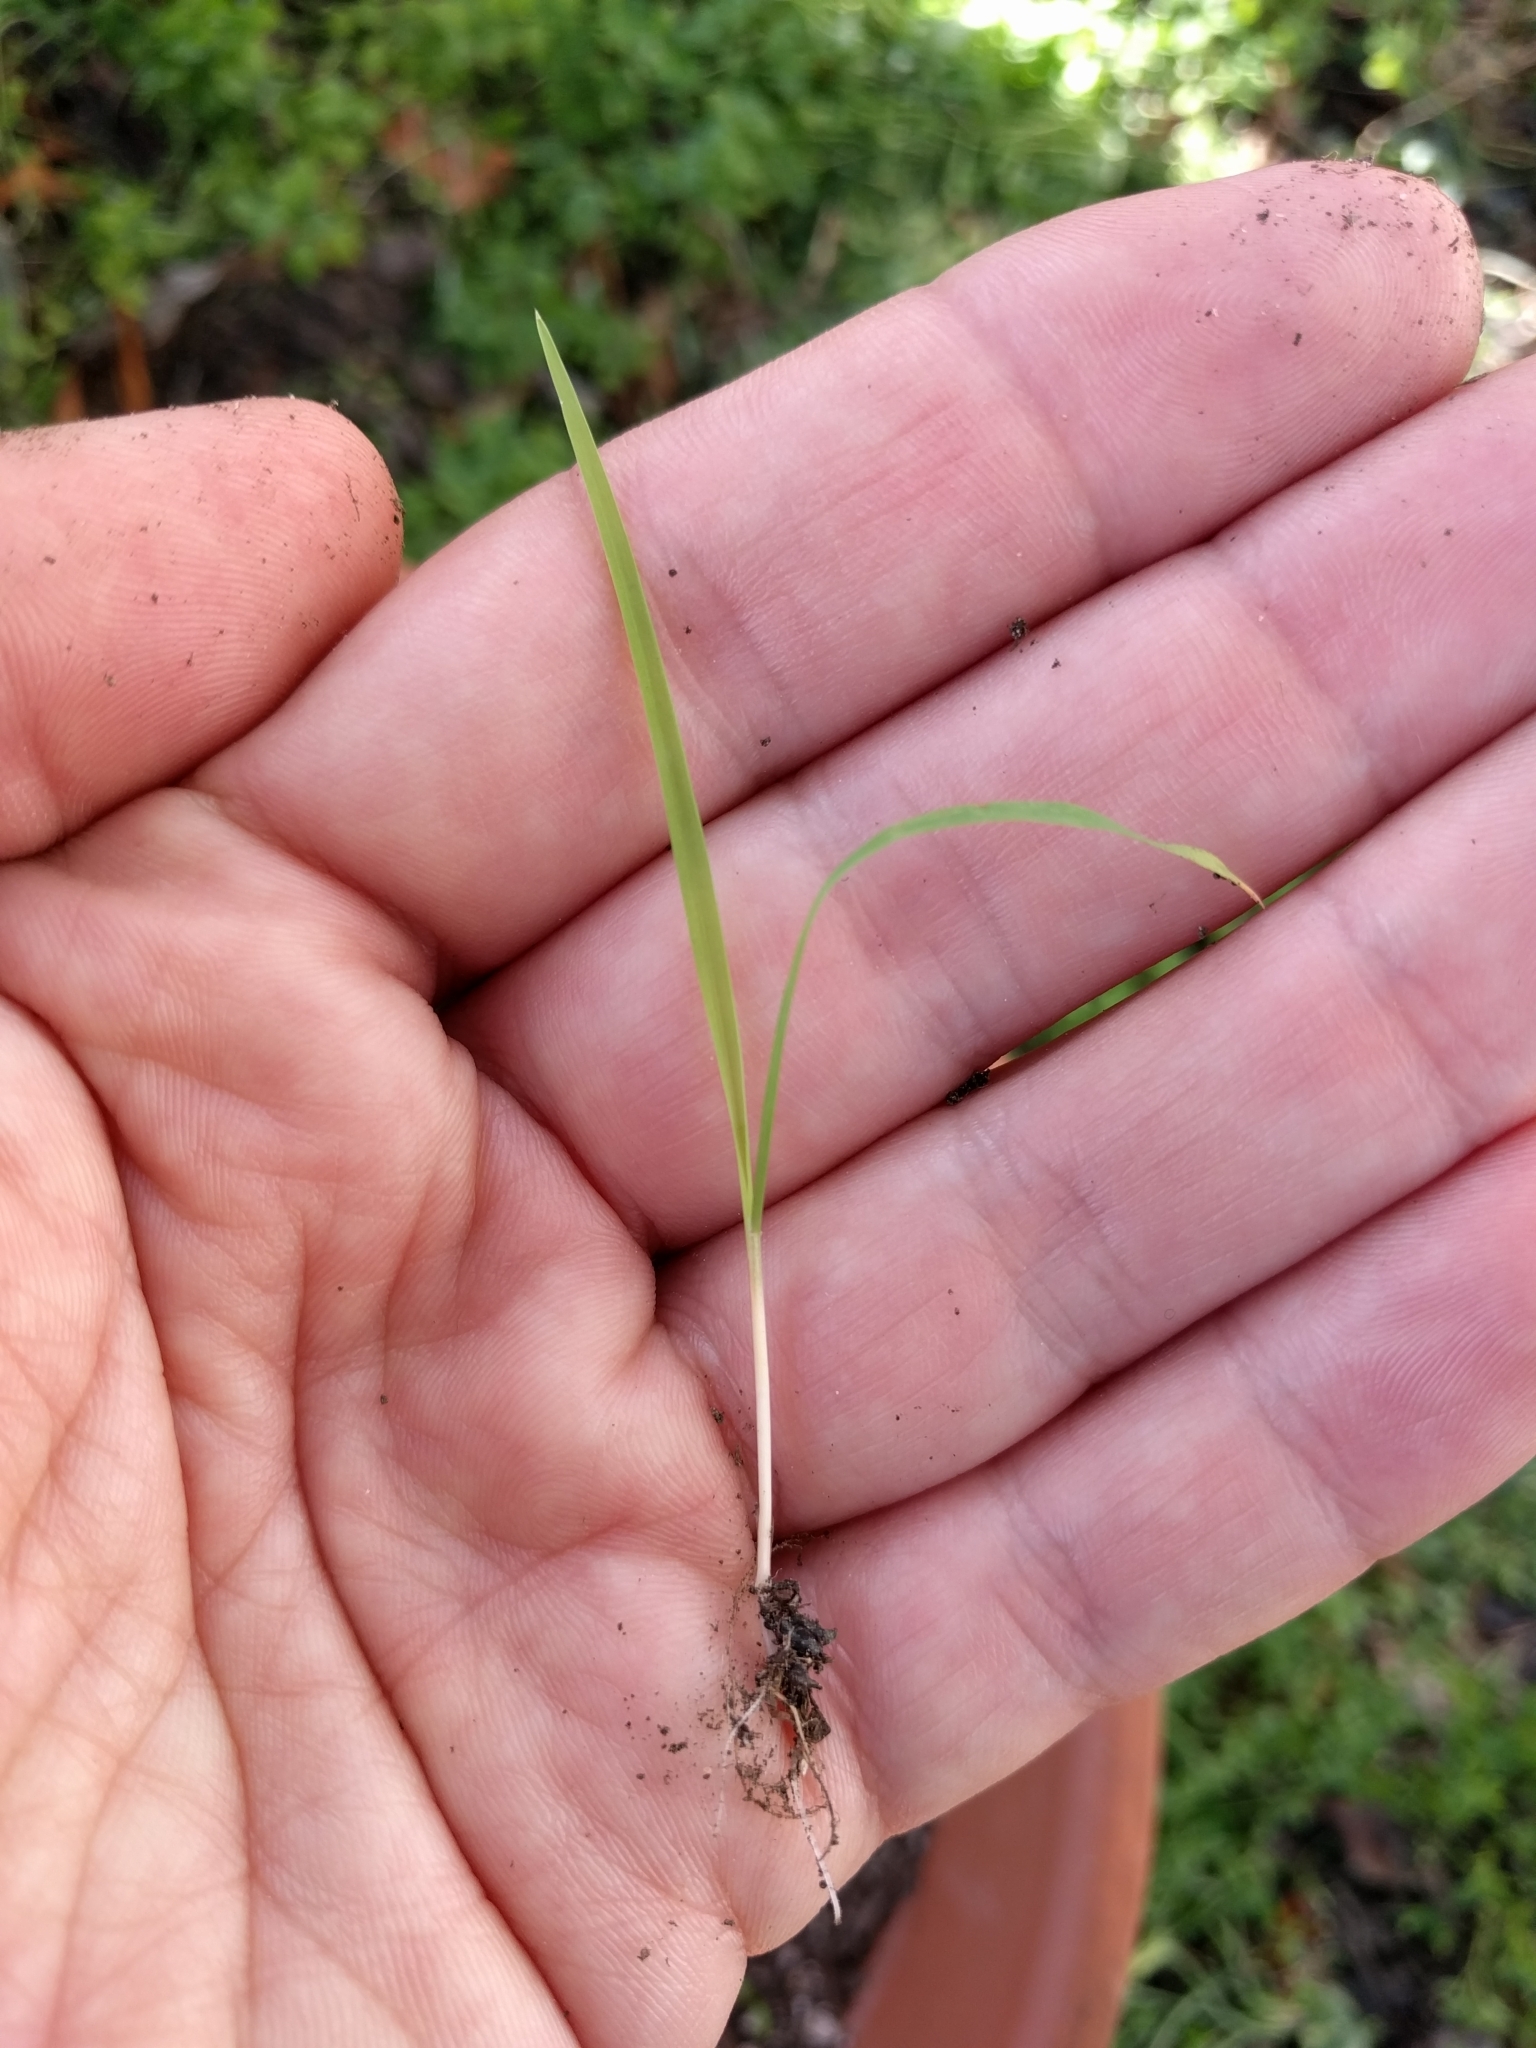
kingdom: Plantae
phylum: Tracheophyta
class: Liliopsida
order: Poales
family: Poaceae
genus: Ehrharta
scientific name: Ehrharta erecta
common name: Panic veldtgrass
